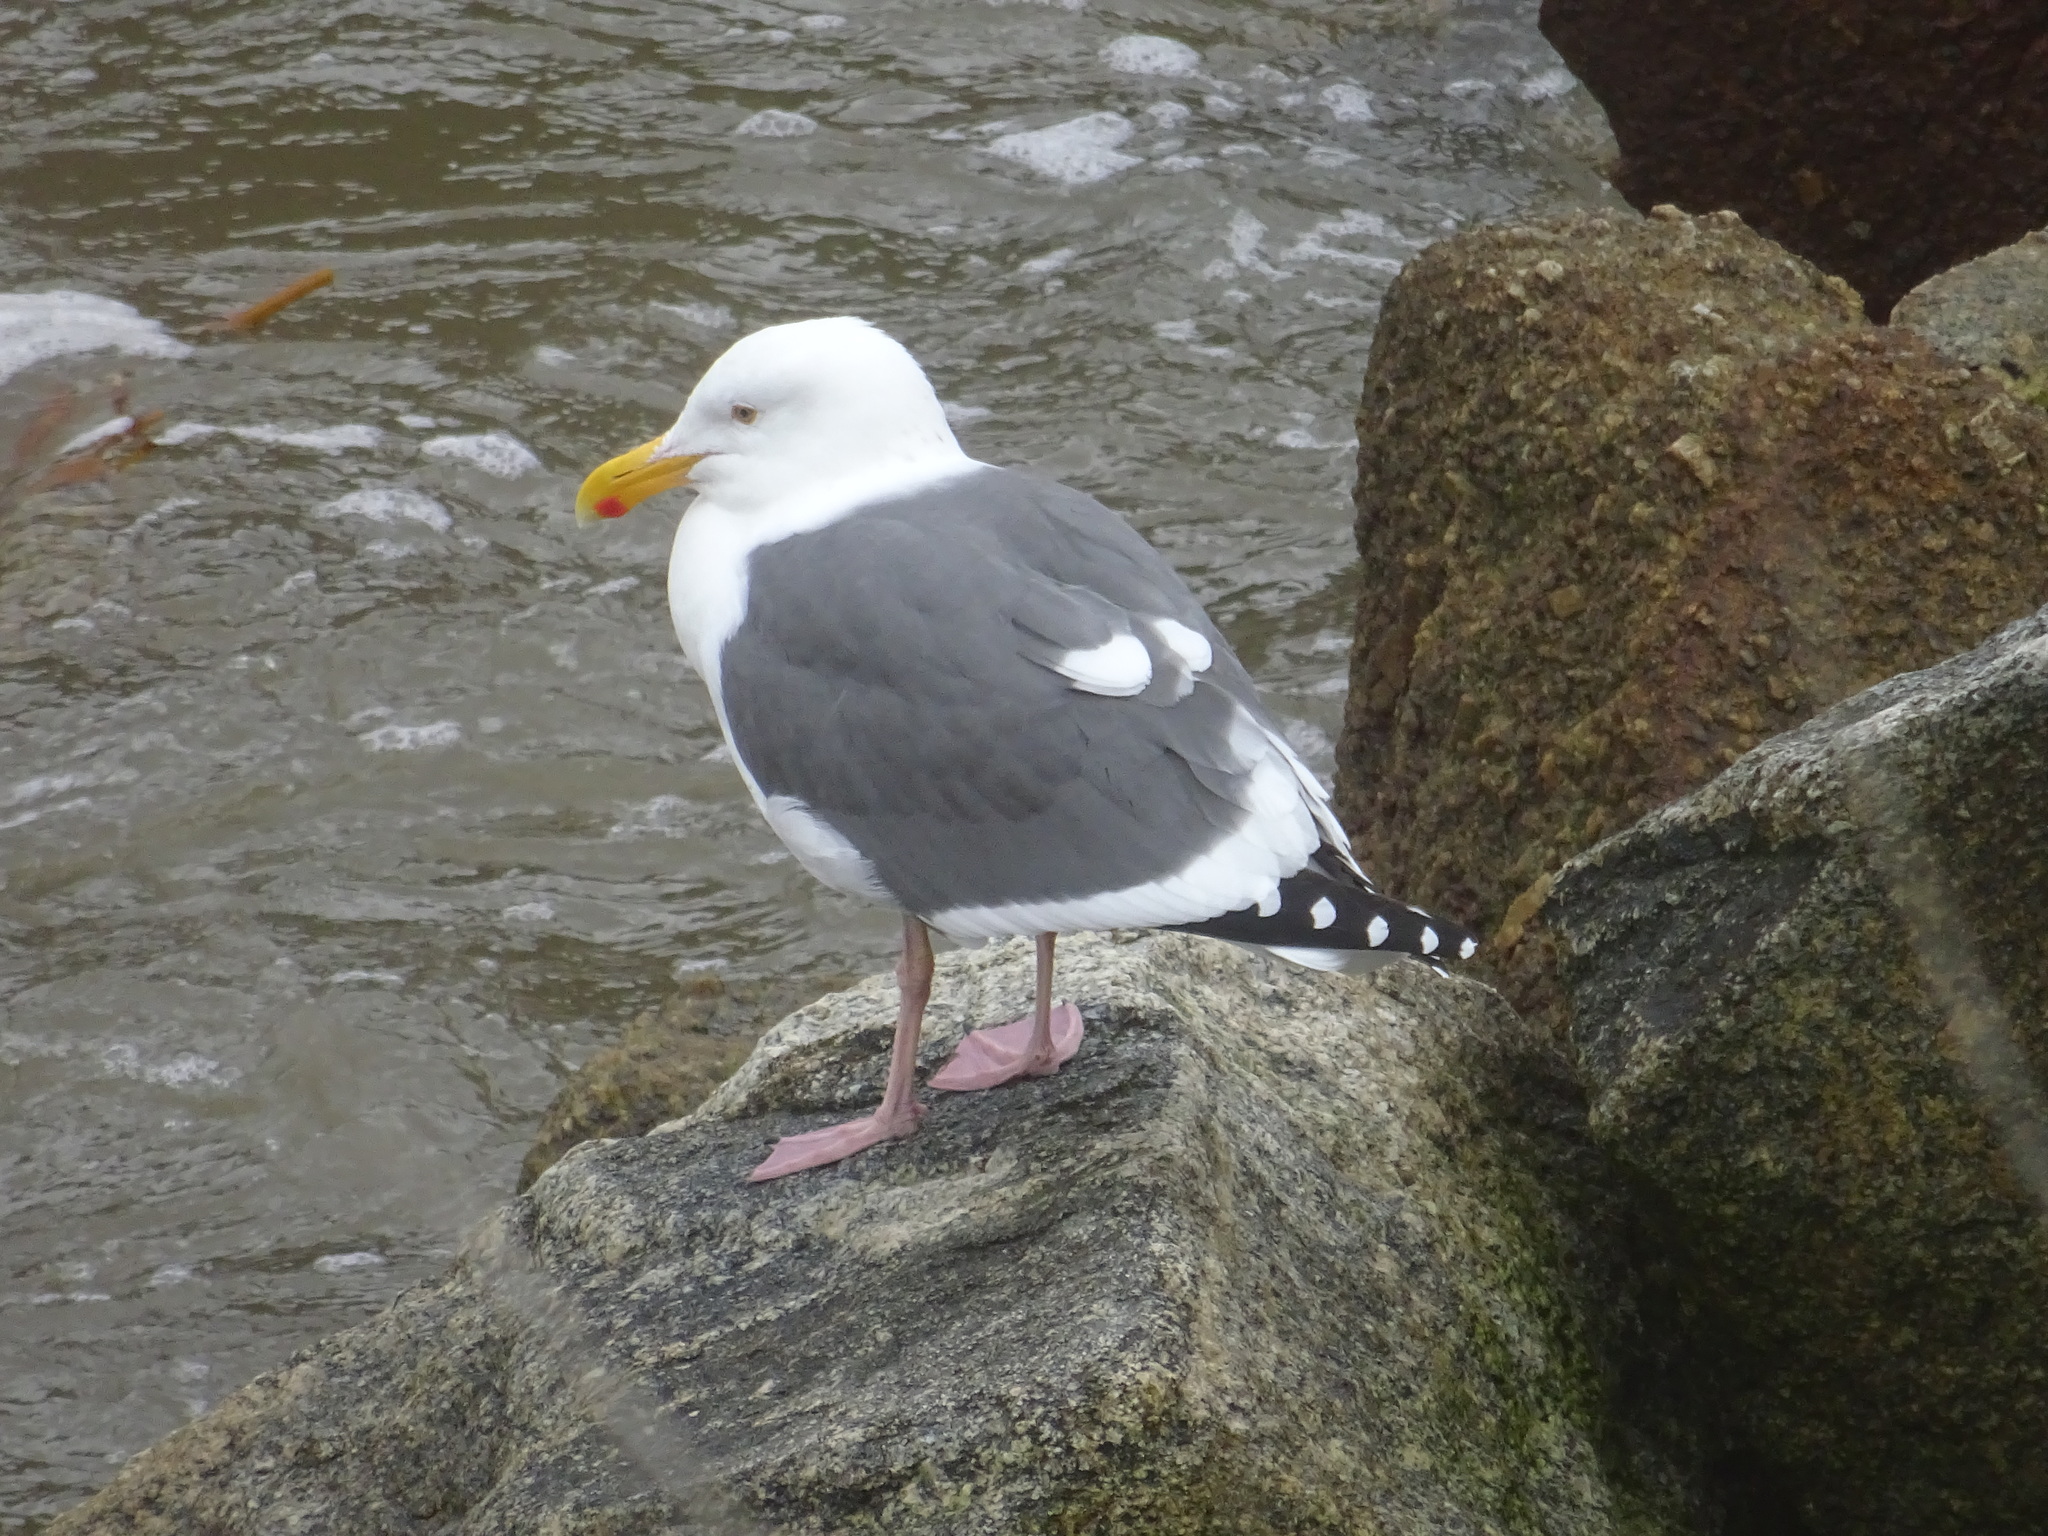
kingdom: Animalia
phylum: Chordata
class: Aves
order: Charadriiformes
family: Laridae
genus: Larus
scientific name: Larus occidentalis
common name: Western gull
